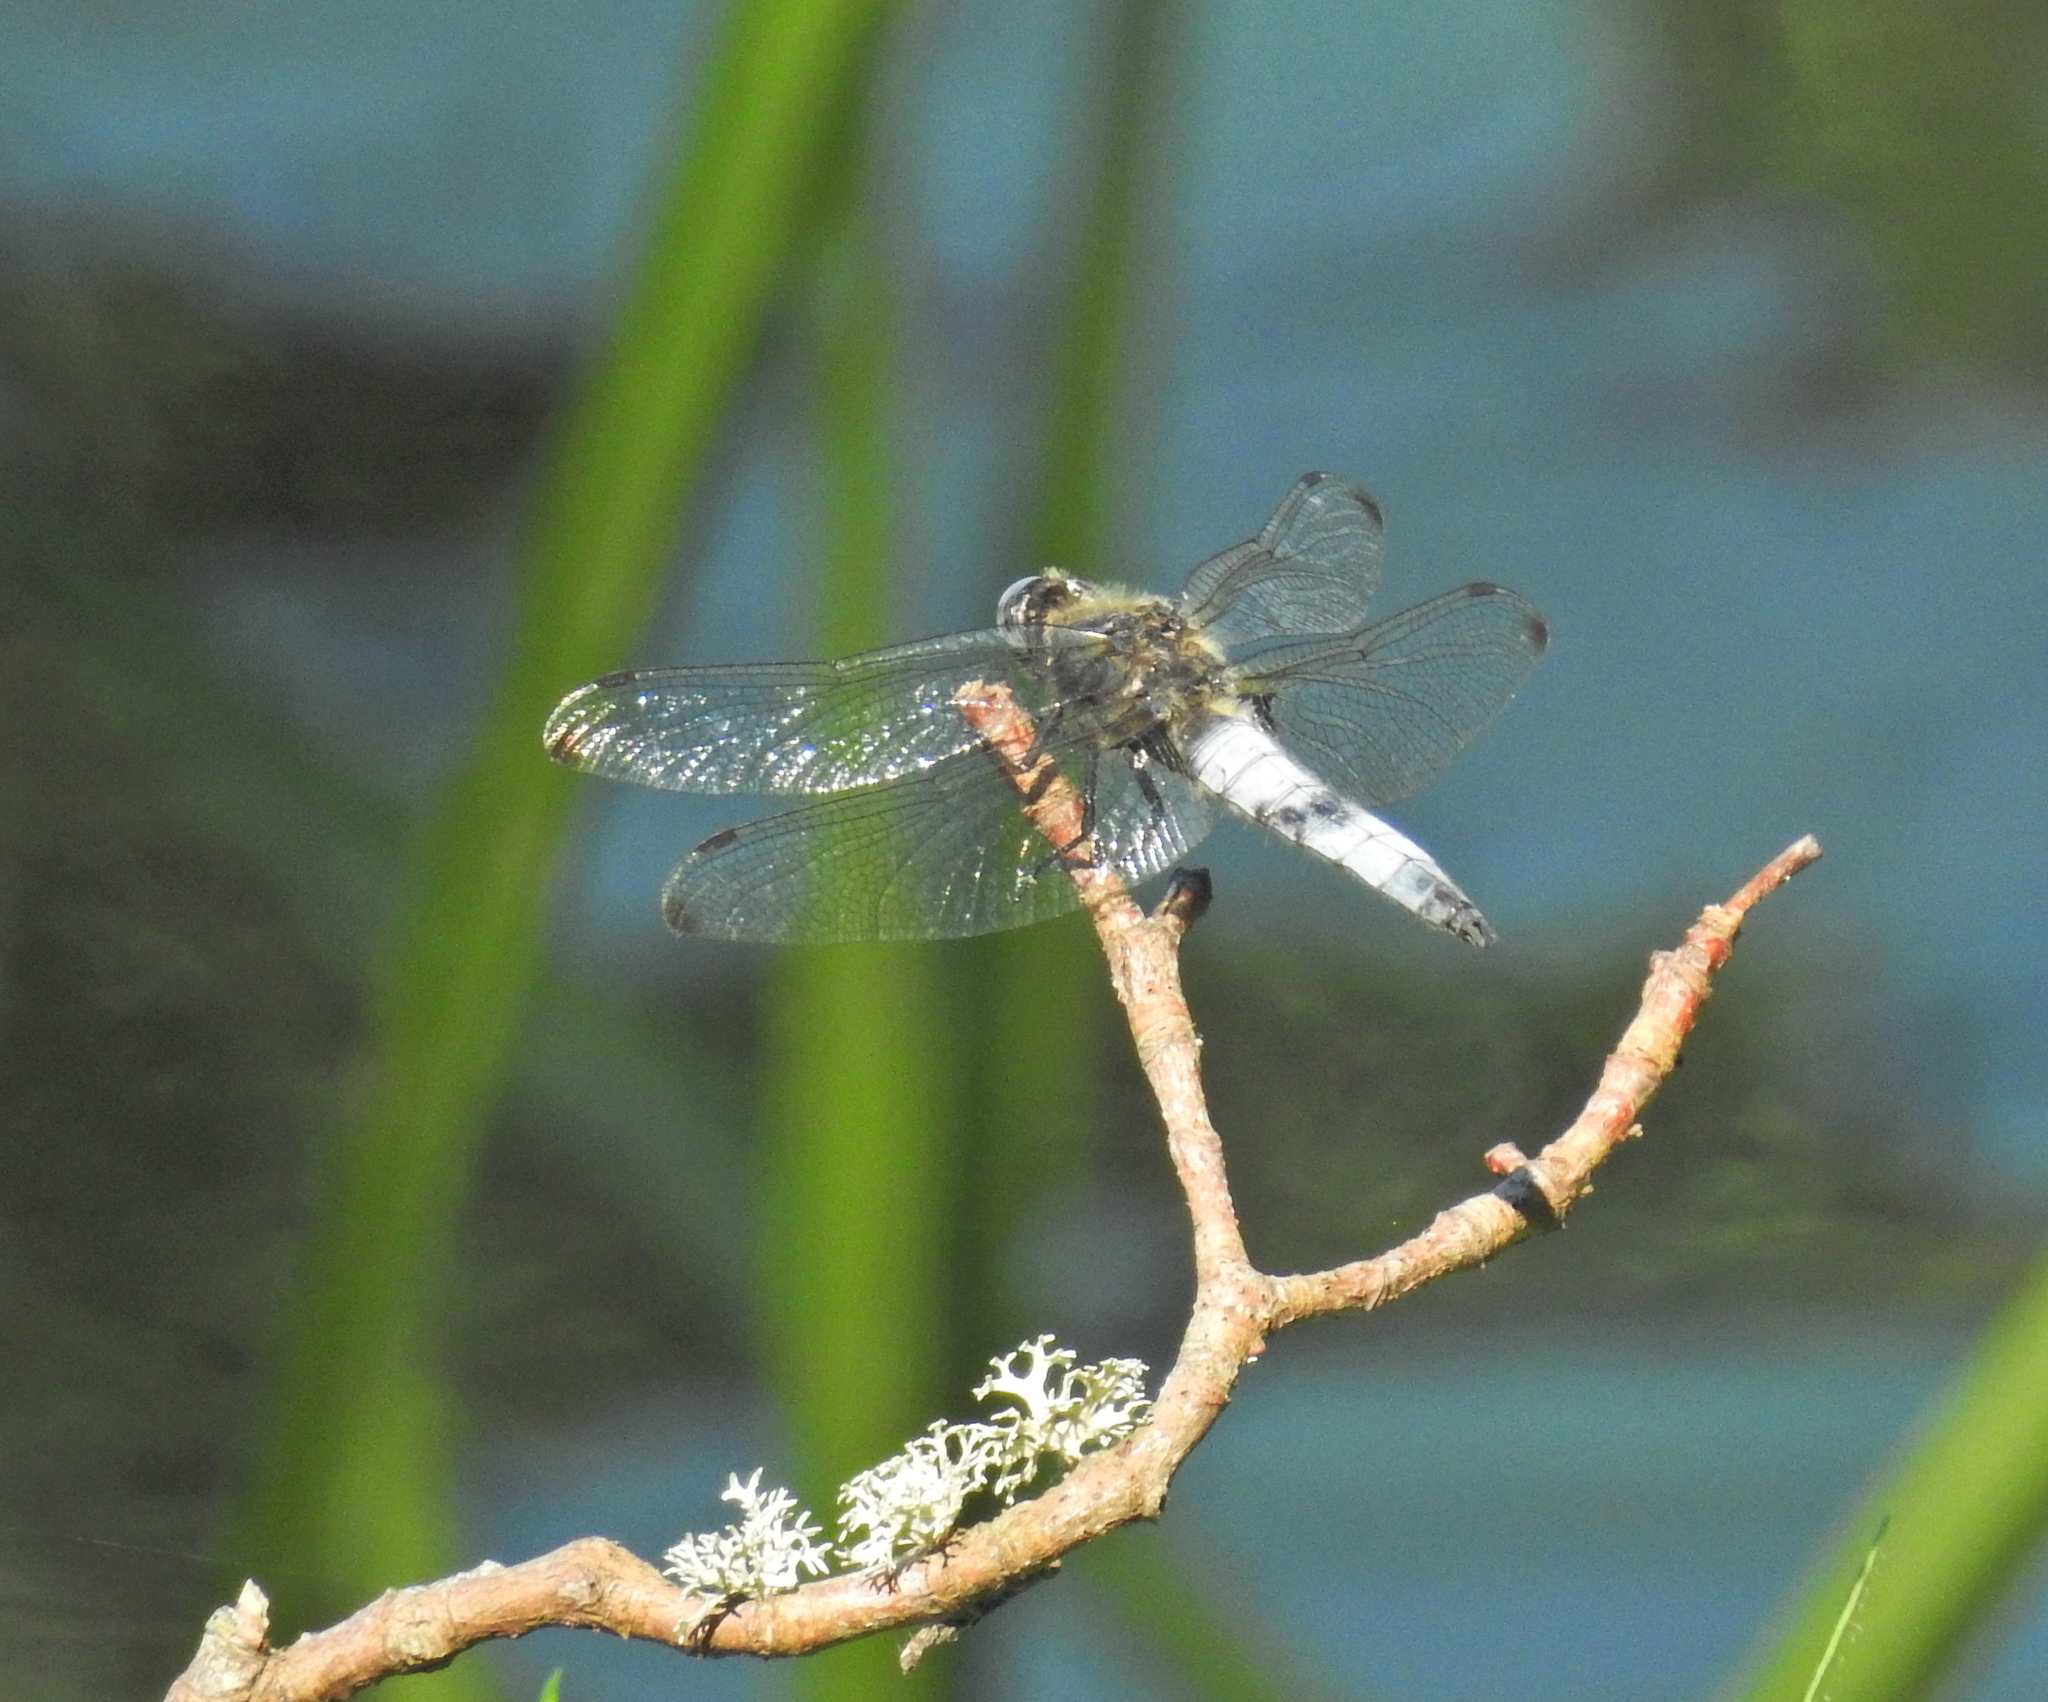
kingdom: Animalia
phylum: Arthropoda
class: Insecta
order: Odonata
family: Libellulidae
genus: Libellula
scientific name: Libellula fulva
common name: Blue chaser
